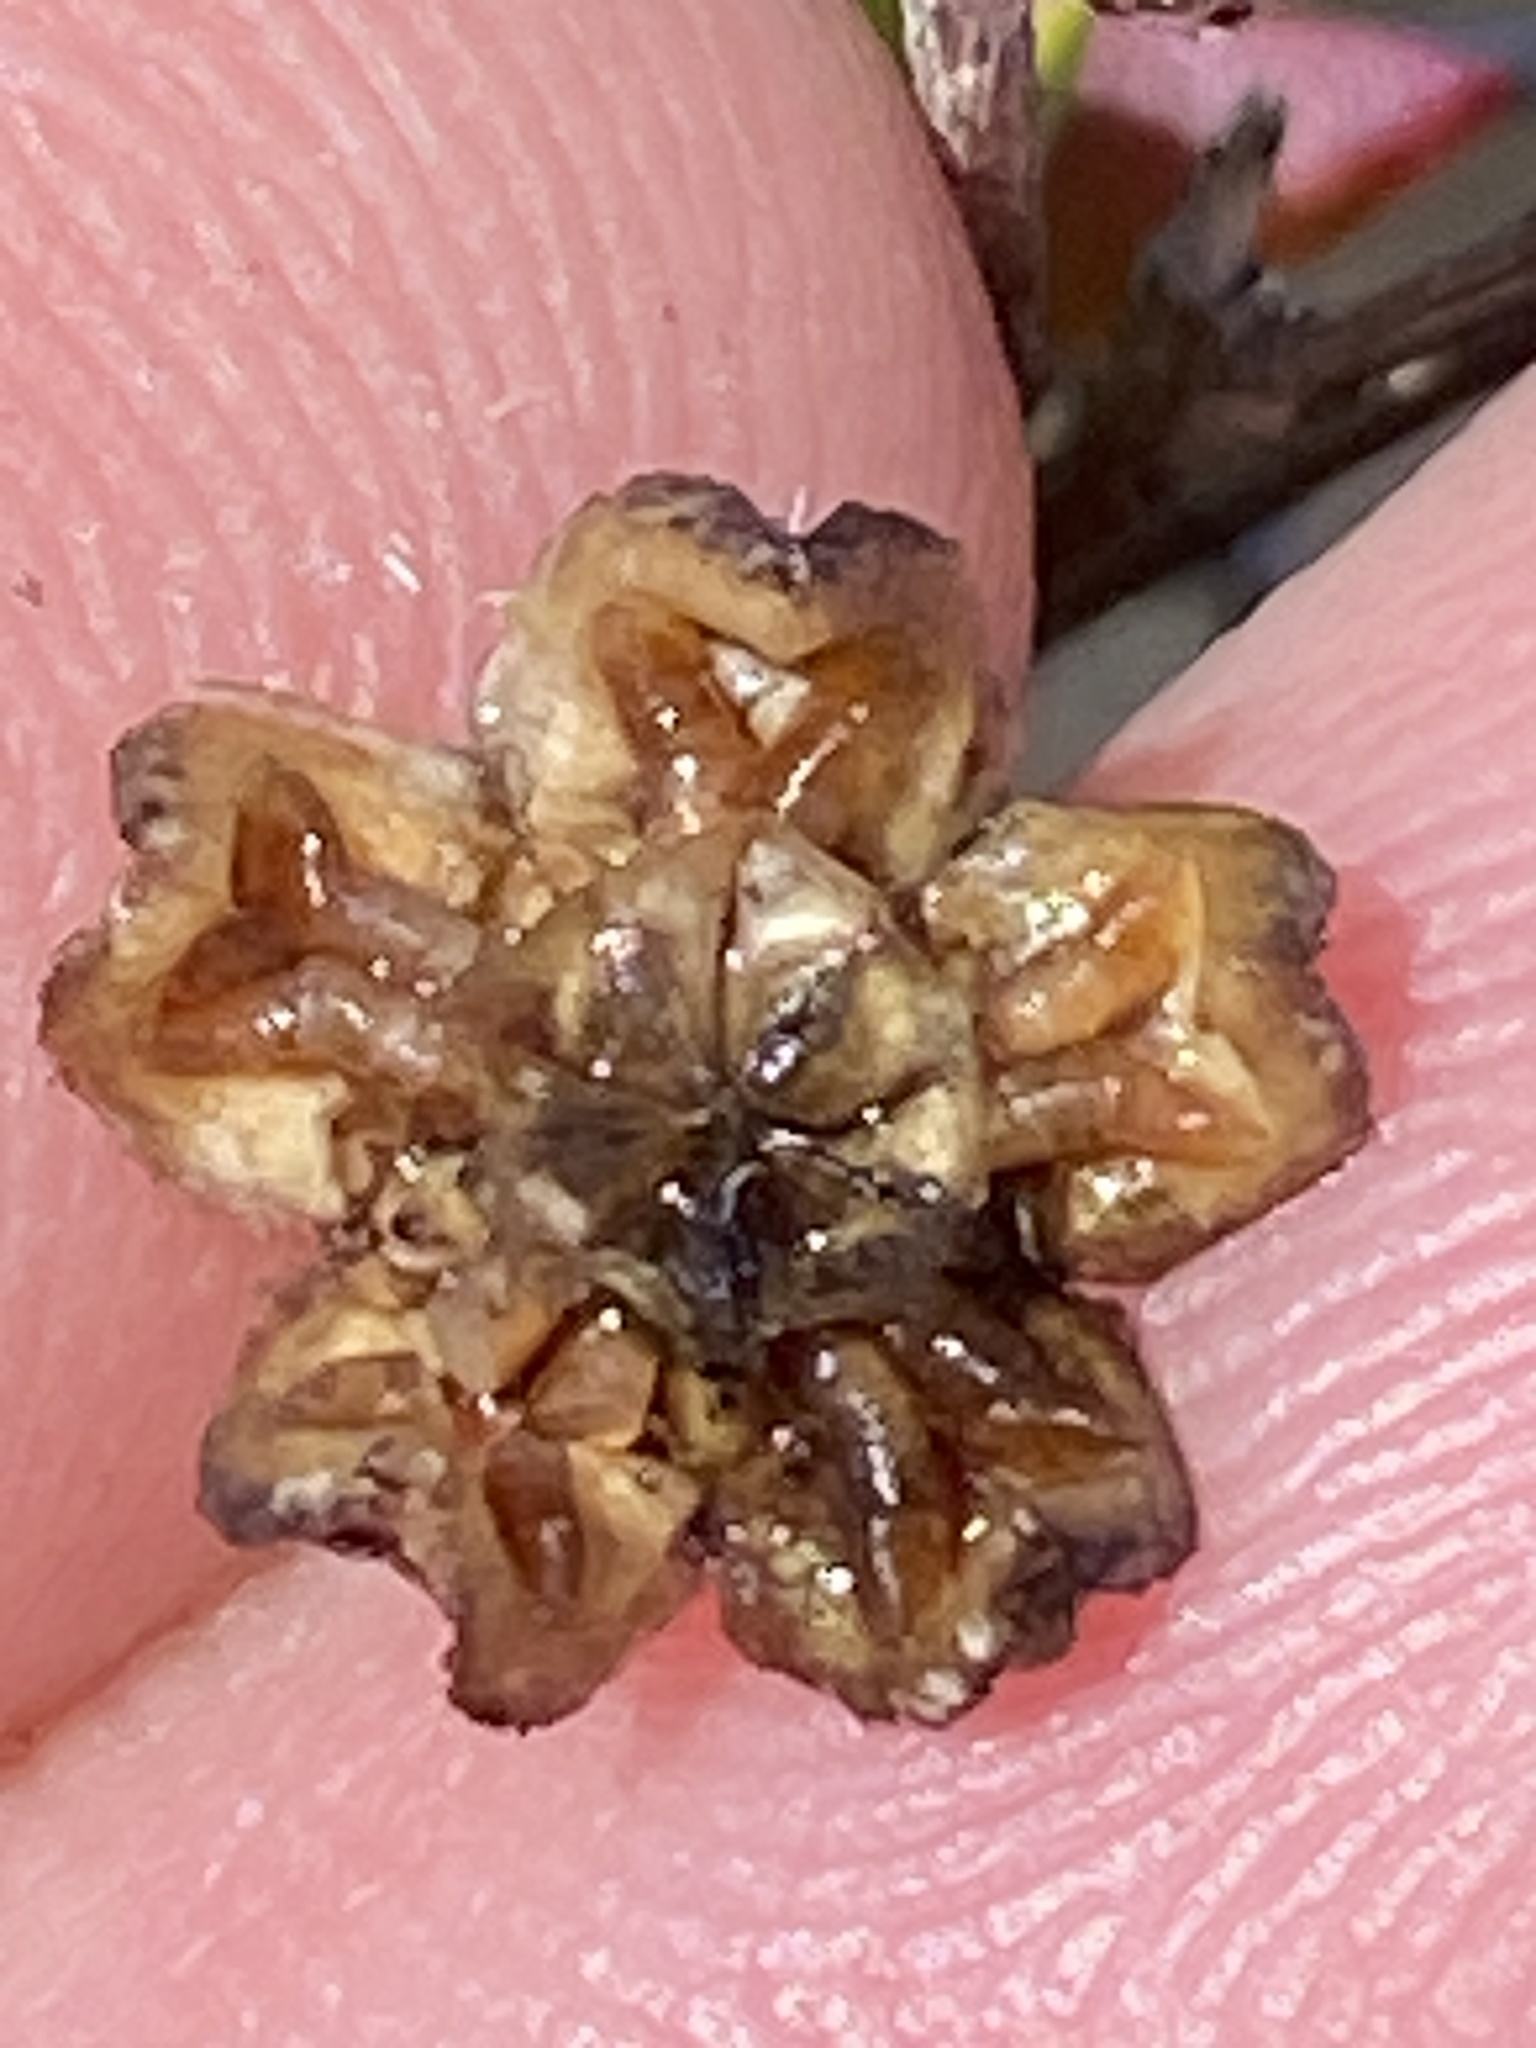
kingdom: Plantae
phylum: Tracheophyta
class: Magnoliopsida
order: Caryophyllales
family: Aizoaceae
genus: Ruschia
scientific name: Ruschia macowanii
